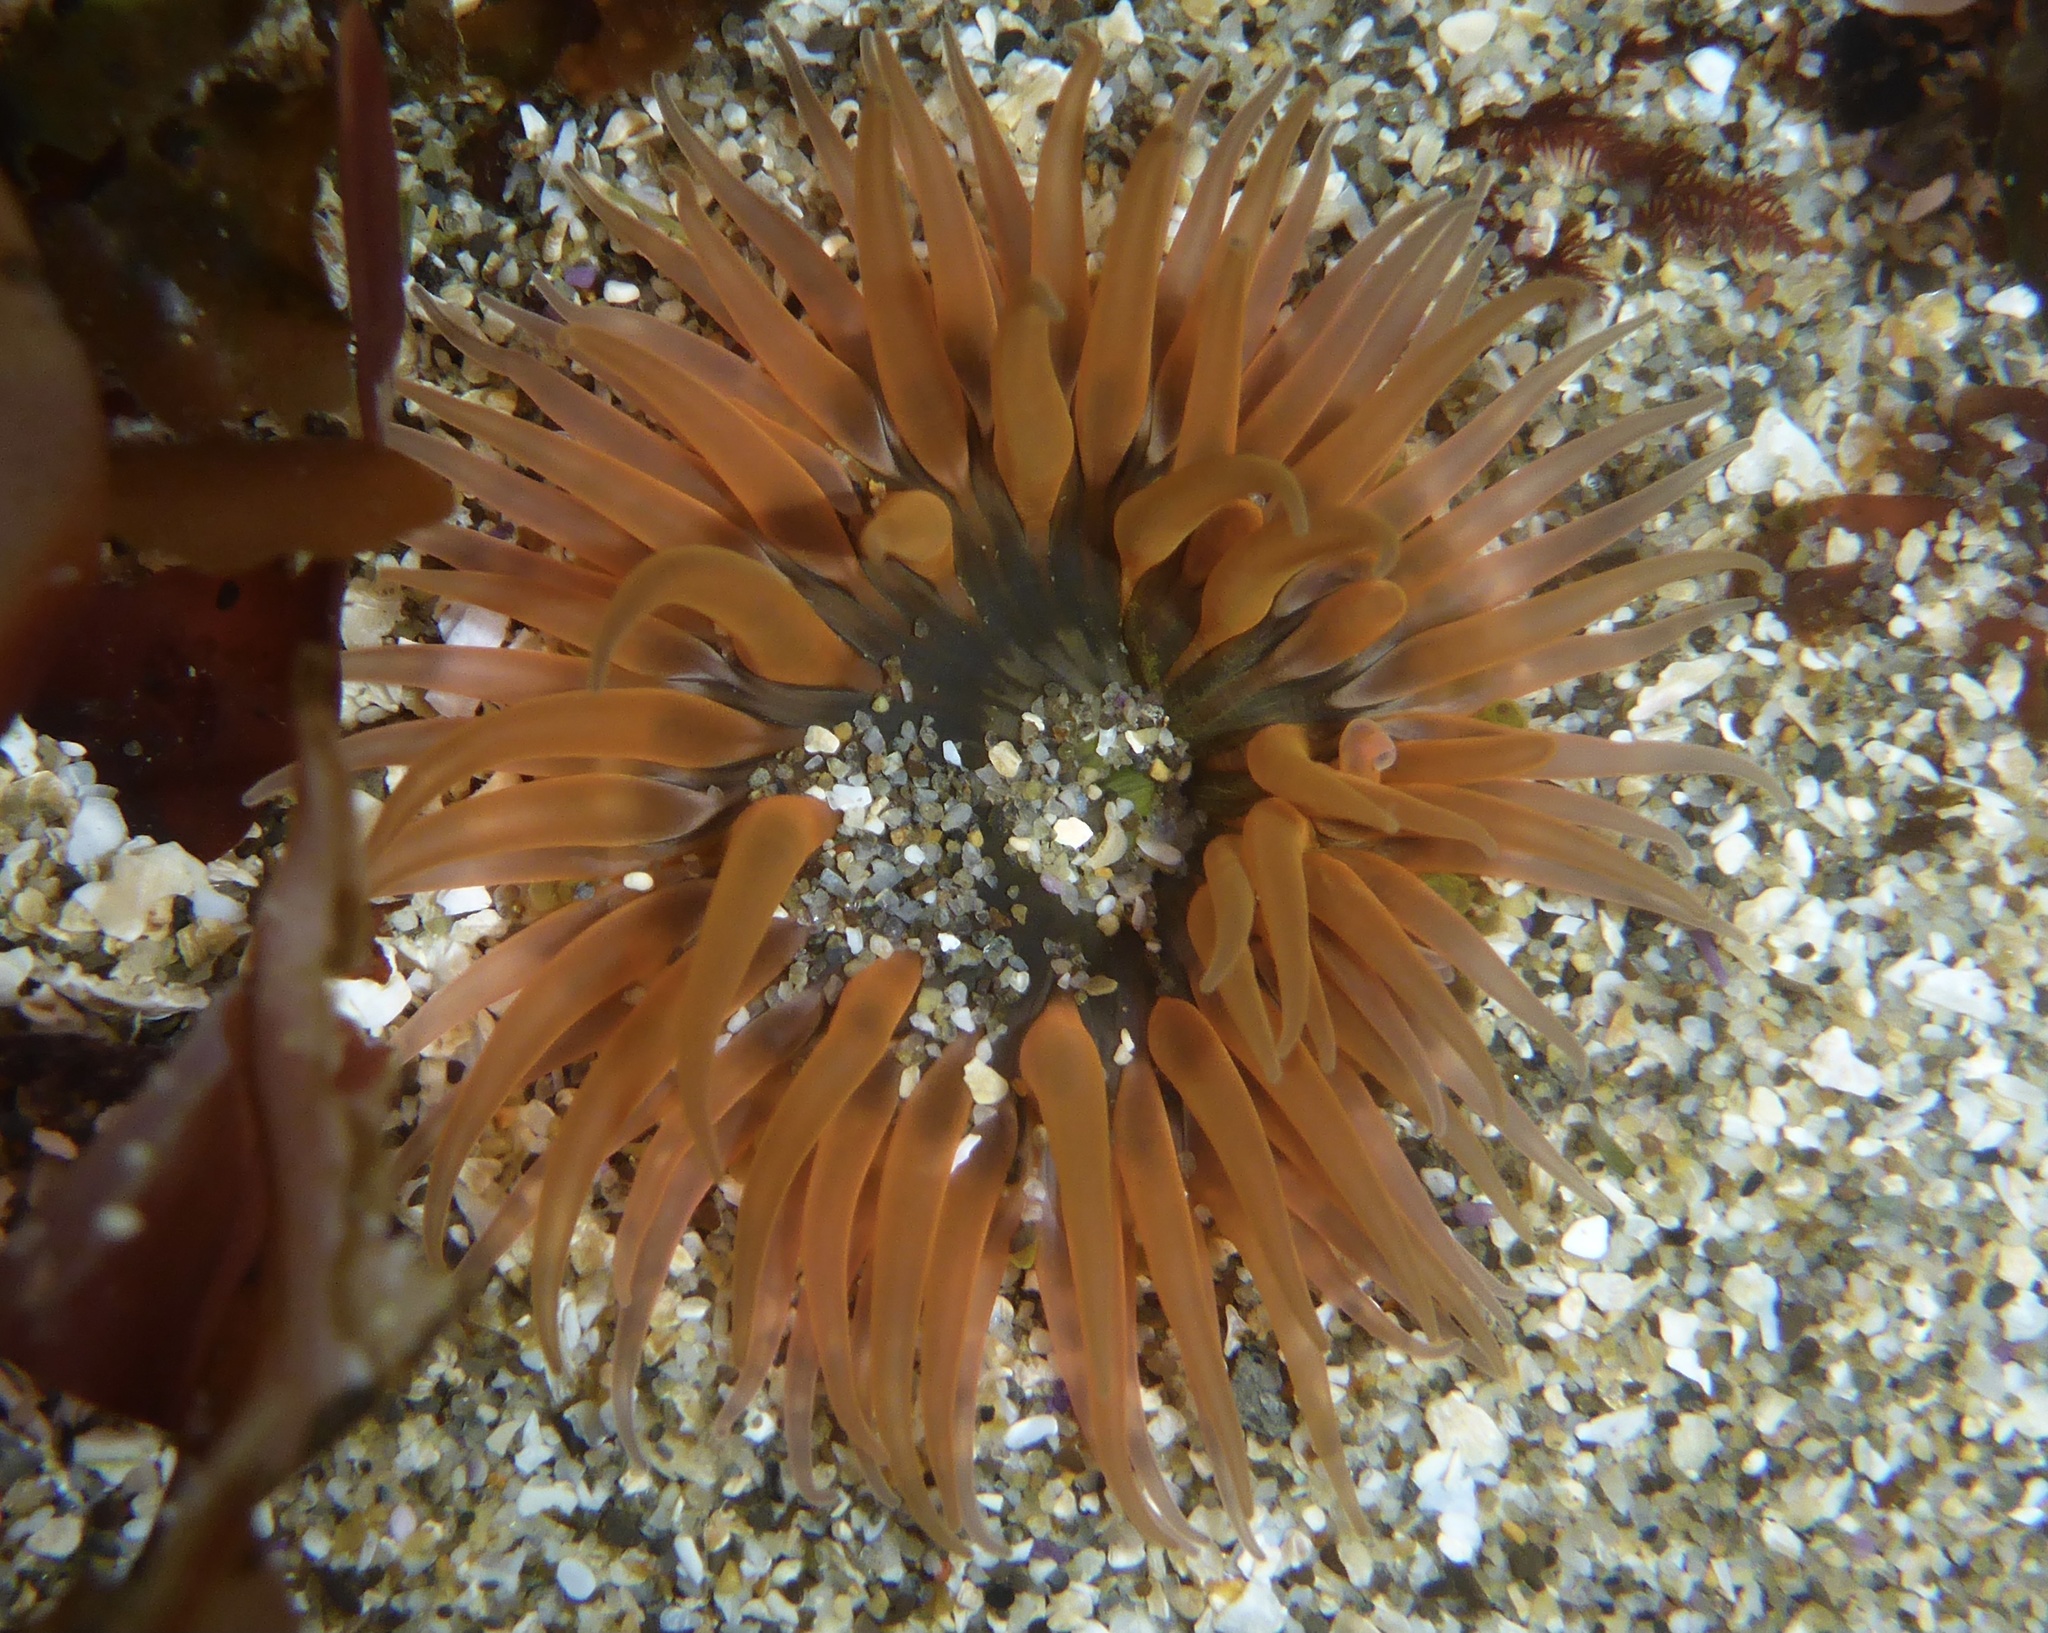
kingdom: Animalia
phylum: Cnidaria
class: Anthozoa
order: Actiniaria
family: Actiniidae
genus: Anthopleura
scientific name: Anthopleura artemisia
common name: Buried sea anemone
